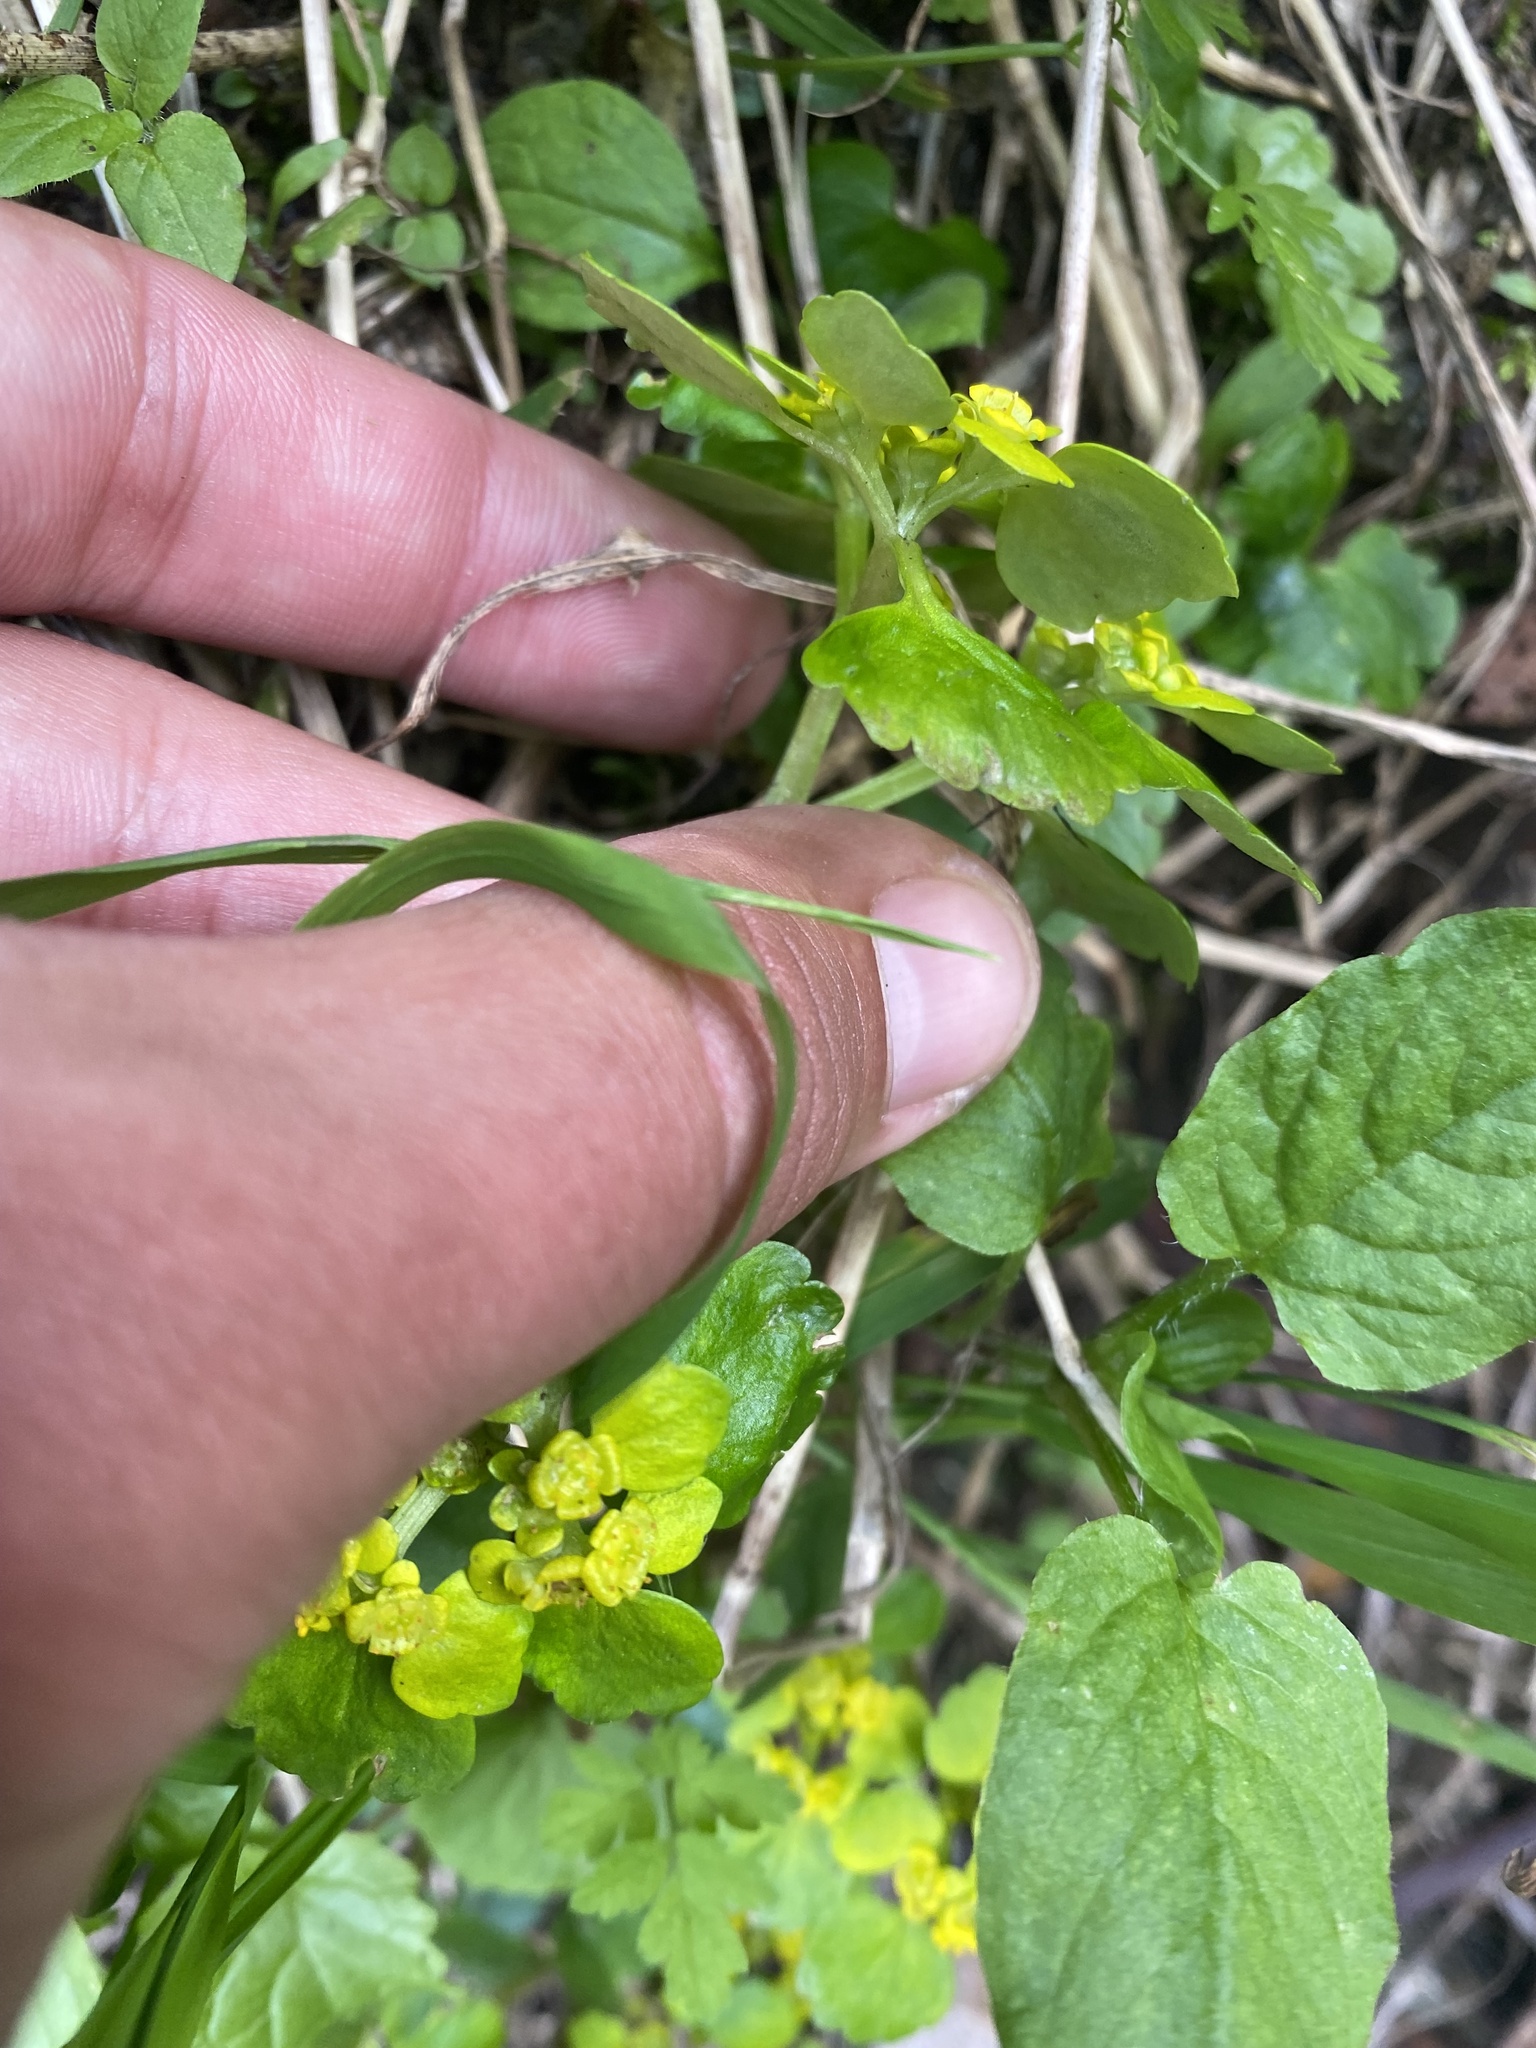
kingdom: Plantae
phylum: Tracheophyta
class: Magnoliopsida
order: Saxifragales
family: Saxifragaceae
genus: Chrysosplenium
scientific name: Chrysosplenium alternifolium
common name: Alternate-leaved golden-saxifrage
